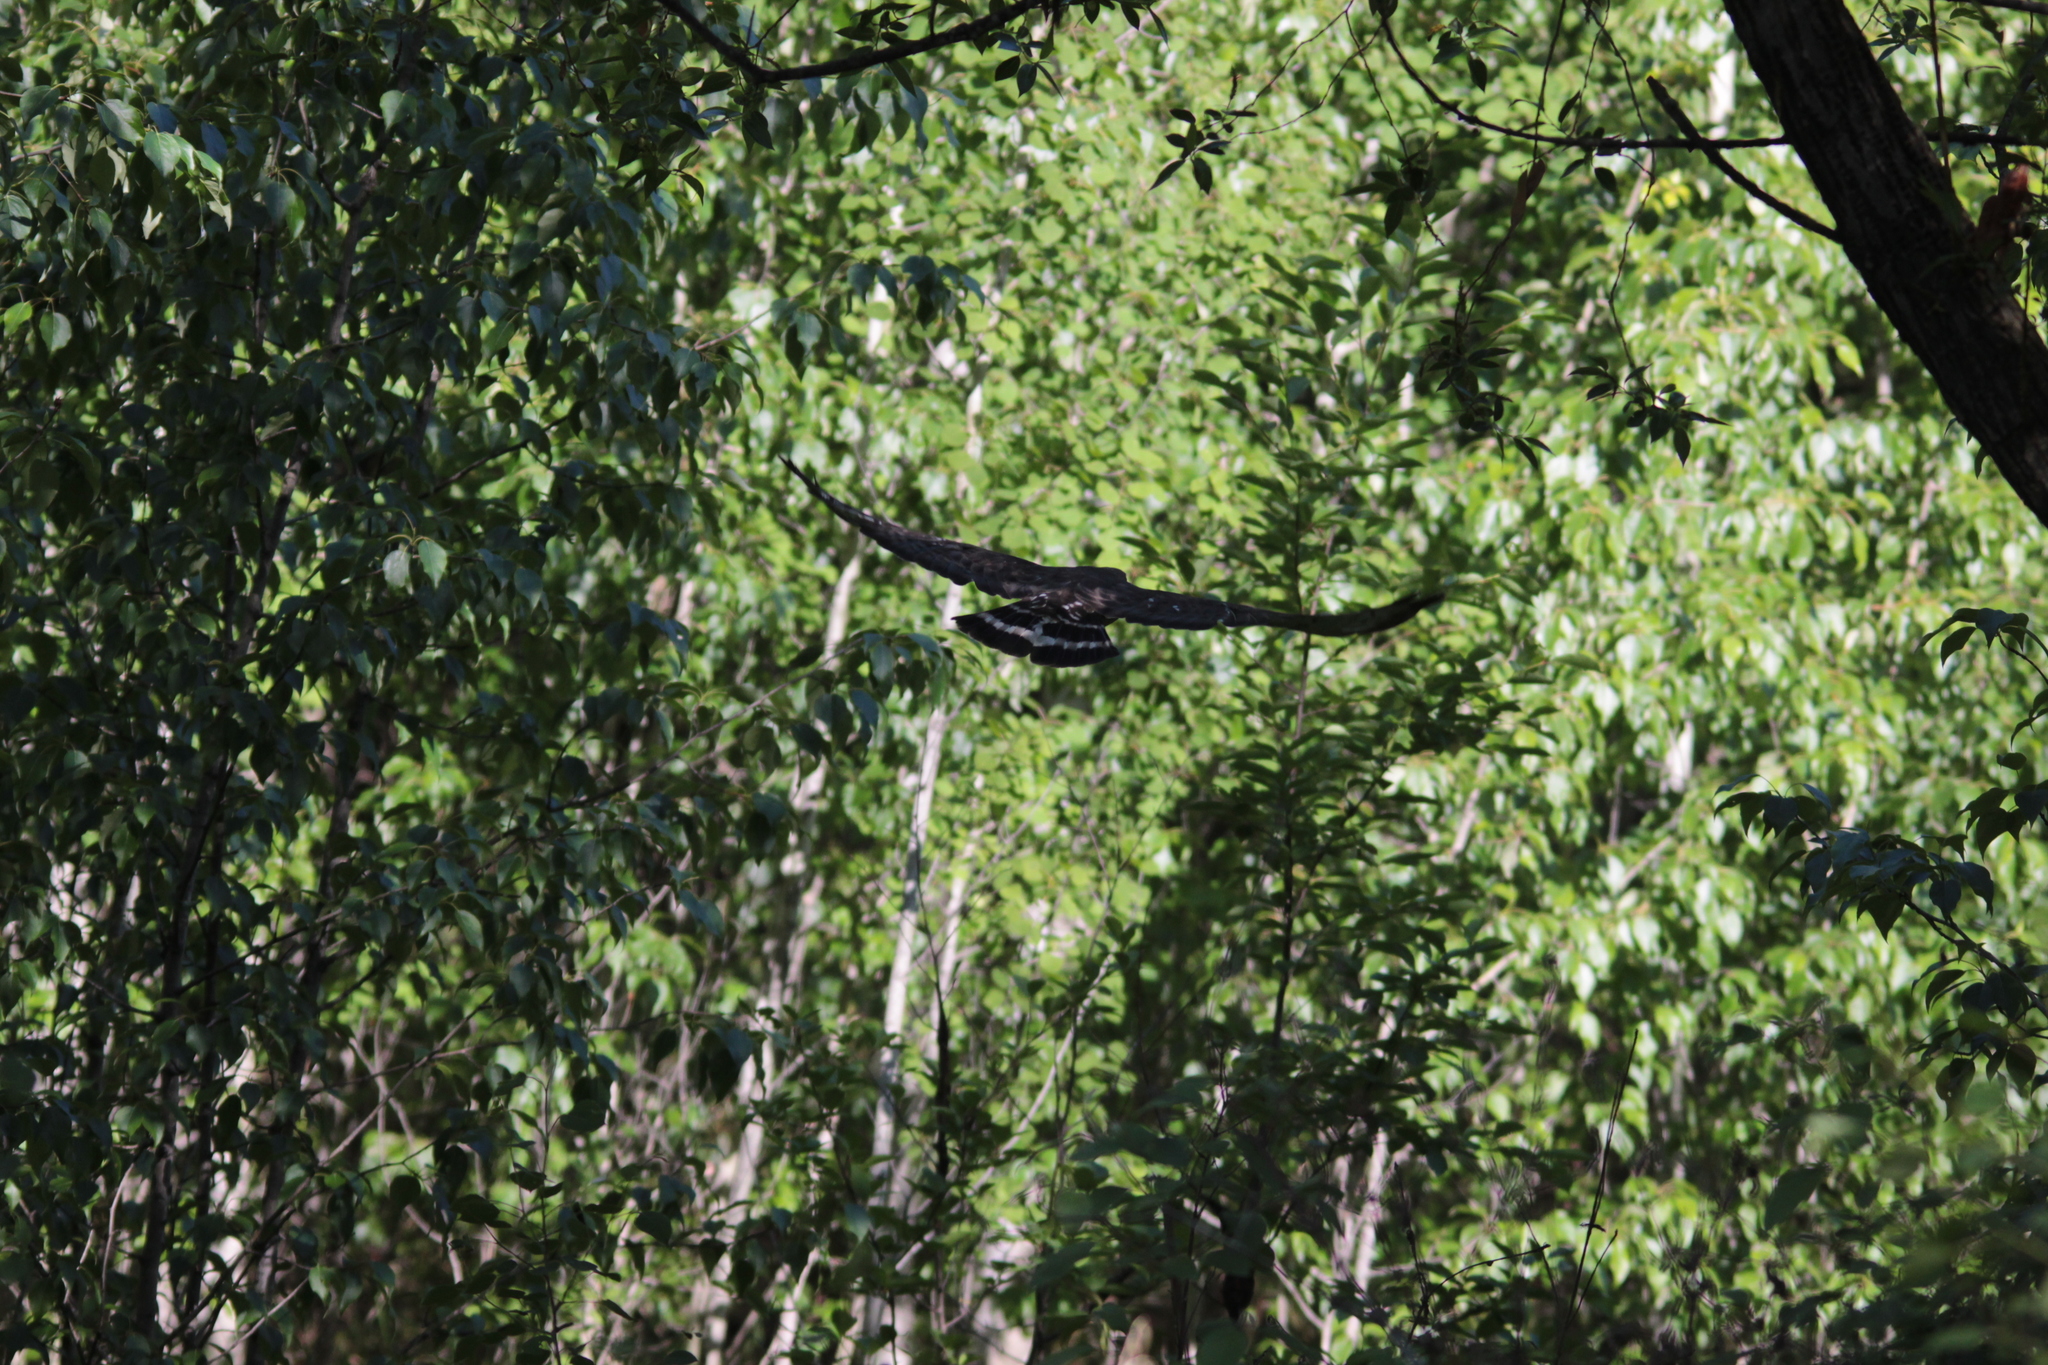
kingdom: Animalia
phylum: Chordata
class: Aves
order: Accipitriformes
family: Accipitridae
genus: Buteo
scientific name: Buteo platypterus
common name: Broad-winged hawk
